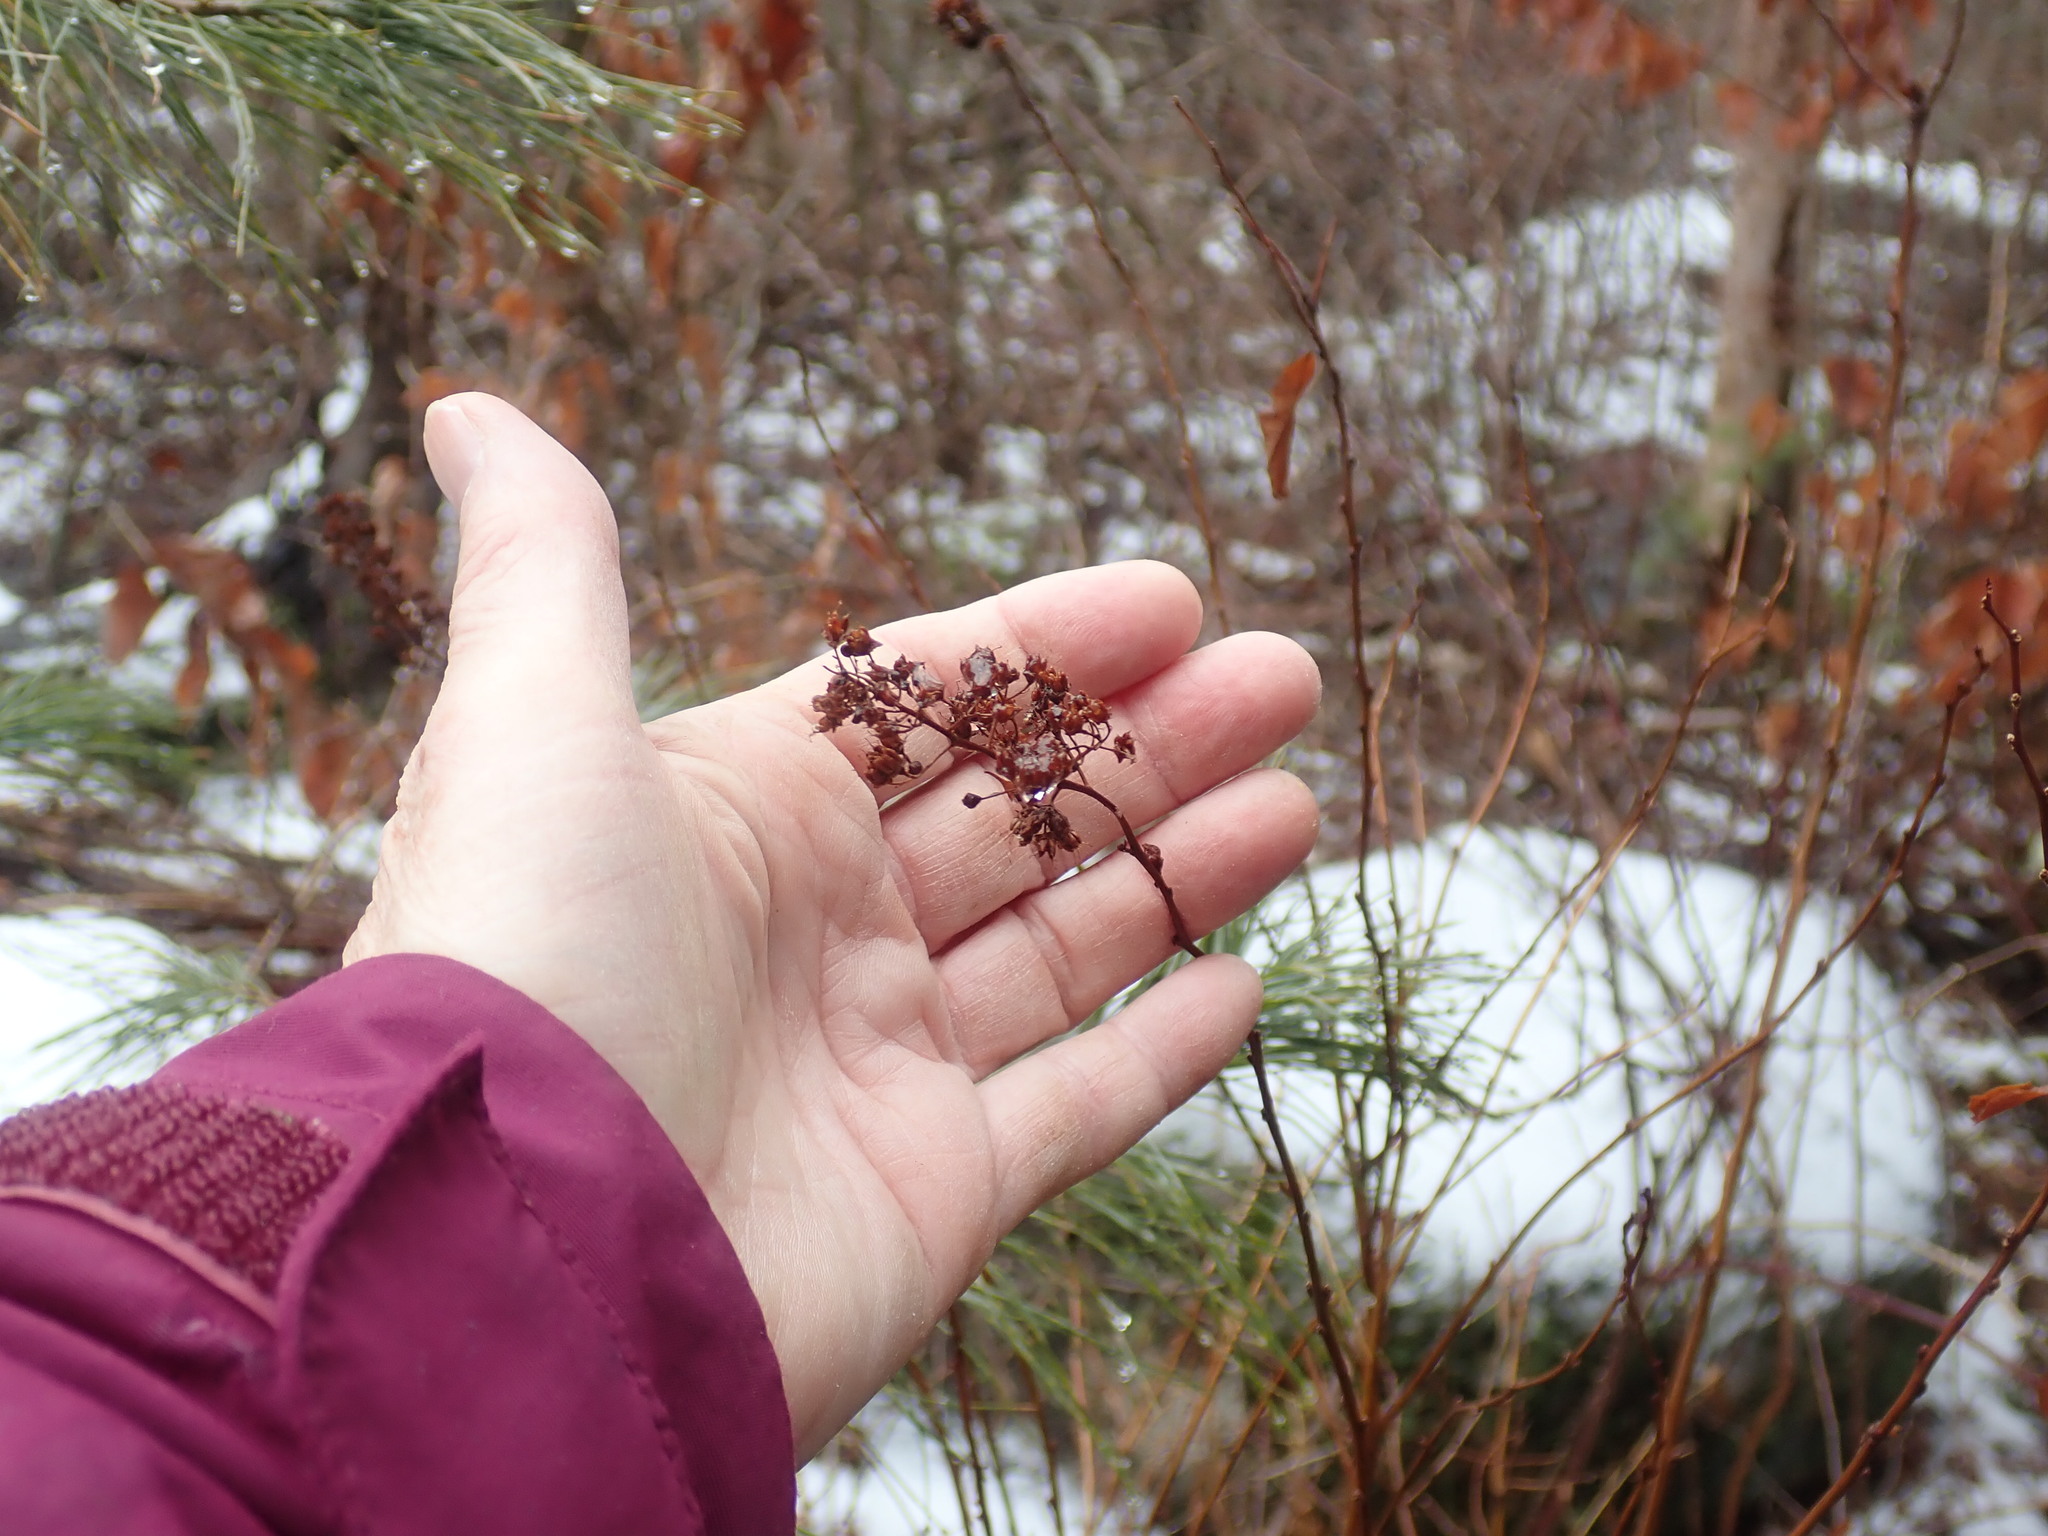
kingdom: Plantae
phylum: Tracheophyta
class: Magnoliopsida
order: Rosales
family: Rosaceae
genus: Spiraea
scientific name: Spiraea alba
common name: Pale bridewort
